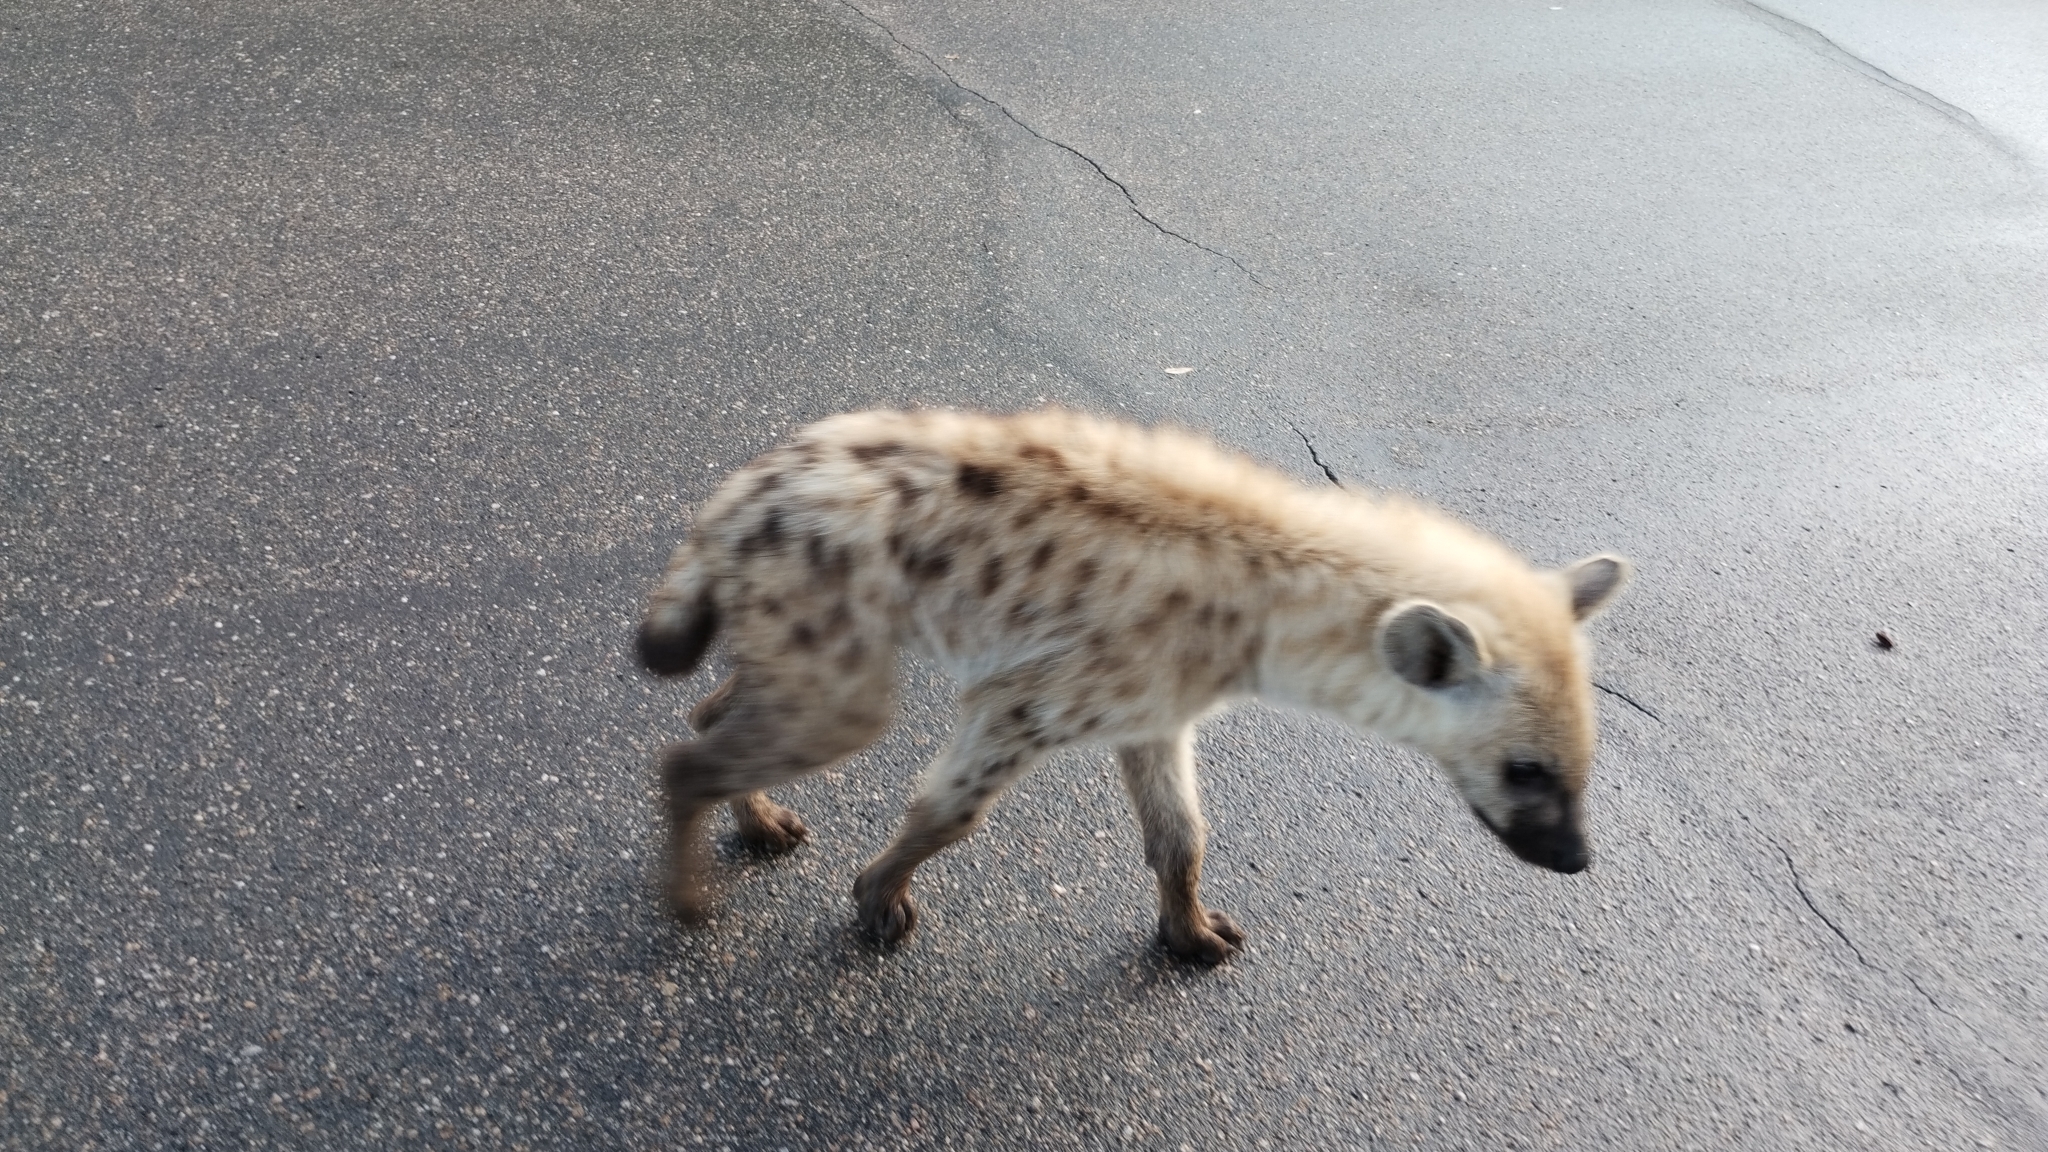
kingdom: Animalia
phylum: Chordata
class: Mammalia
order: Carnivora
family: Hyaenidae
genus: Crocuta
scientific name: Crocuta crocuta
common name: Spotted hyaena
